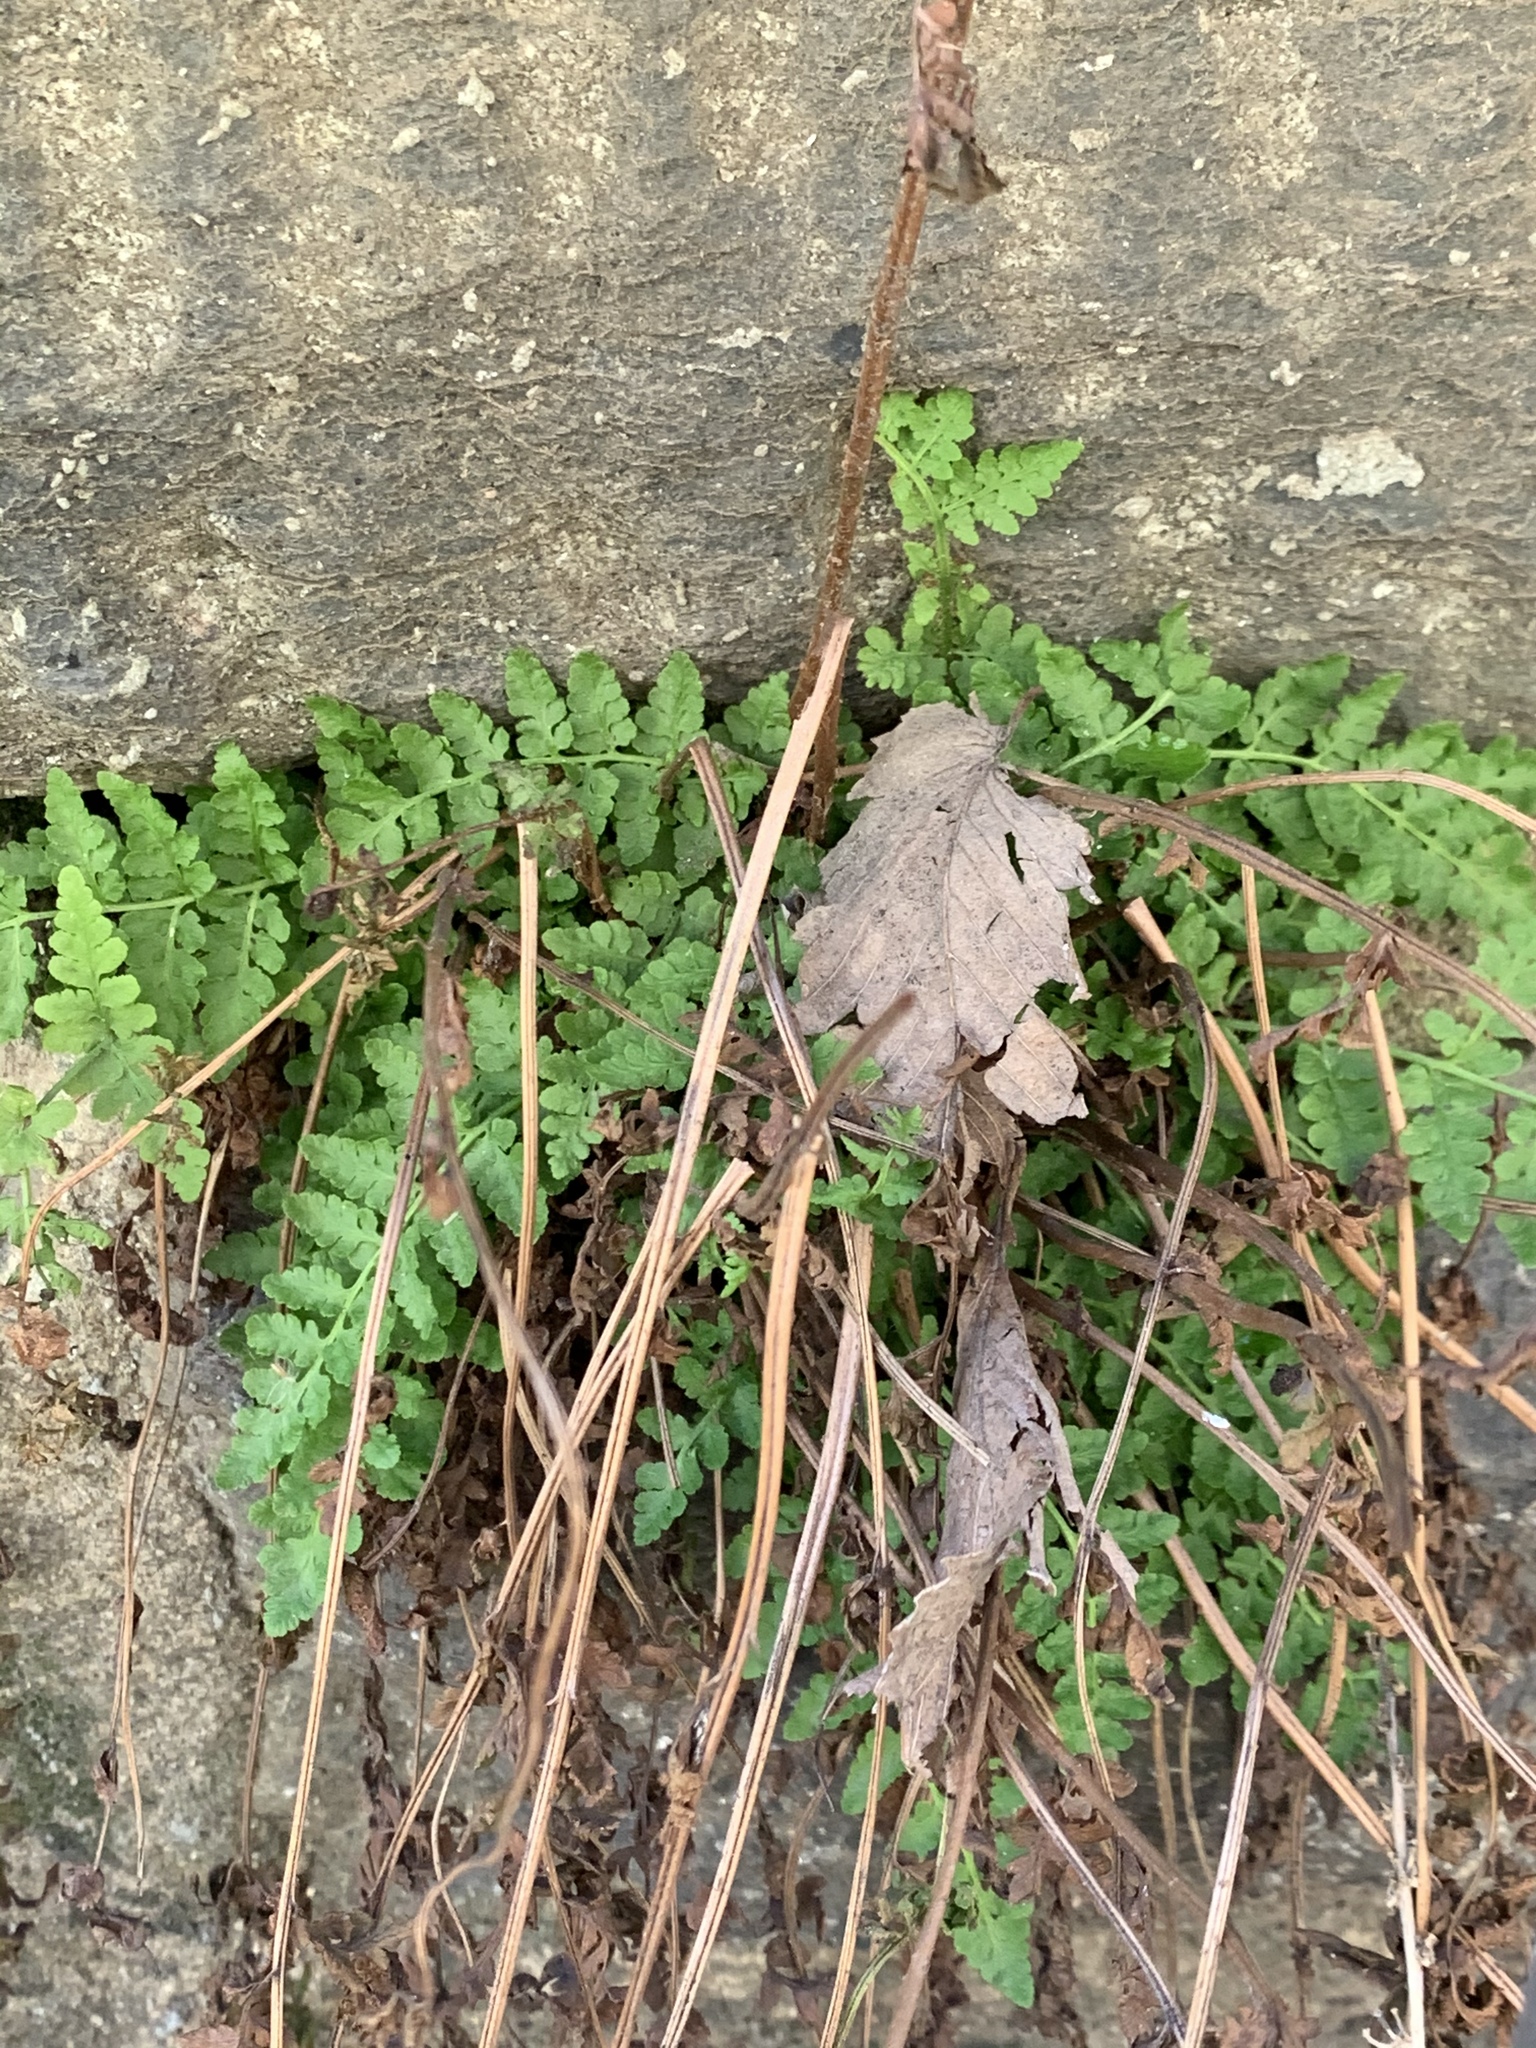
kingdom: Plantae
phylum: Tracheophyta
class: Polypodiopsida
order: Polypodiales
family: Woodsiaceae
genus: Physematium
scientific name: Physematium obtusum
